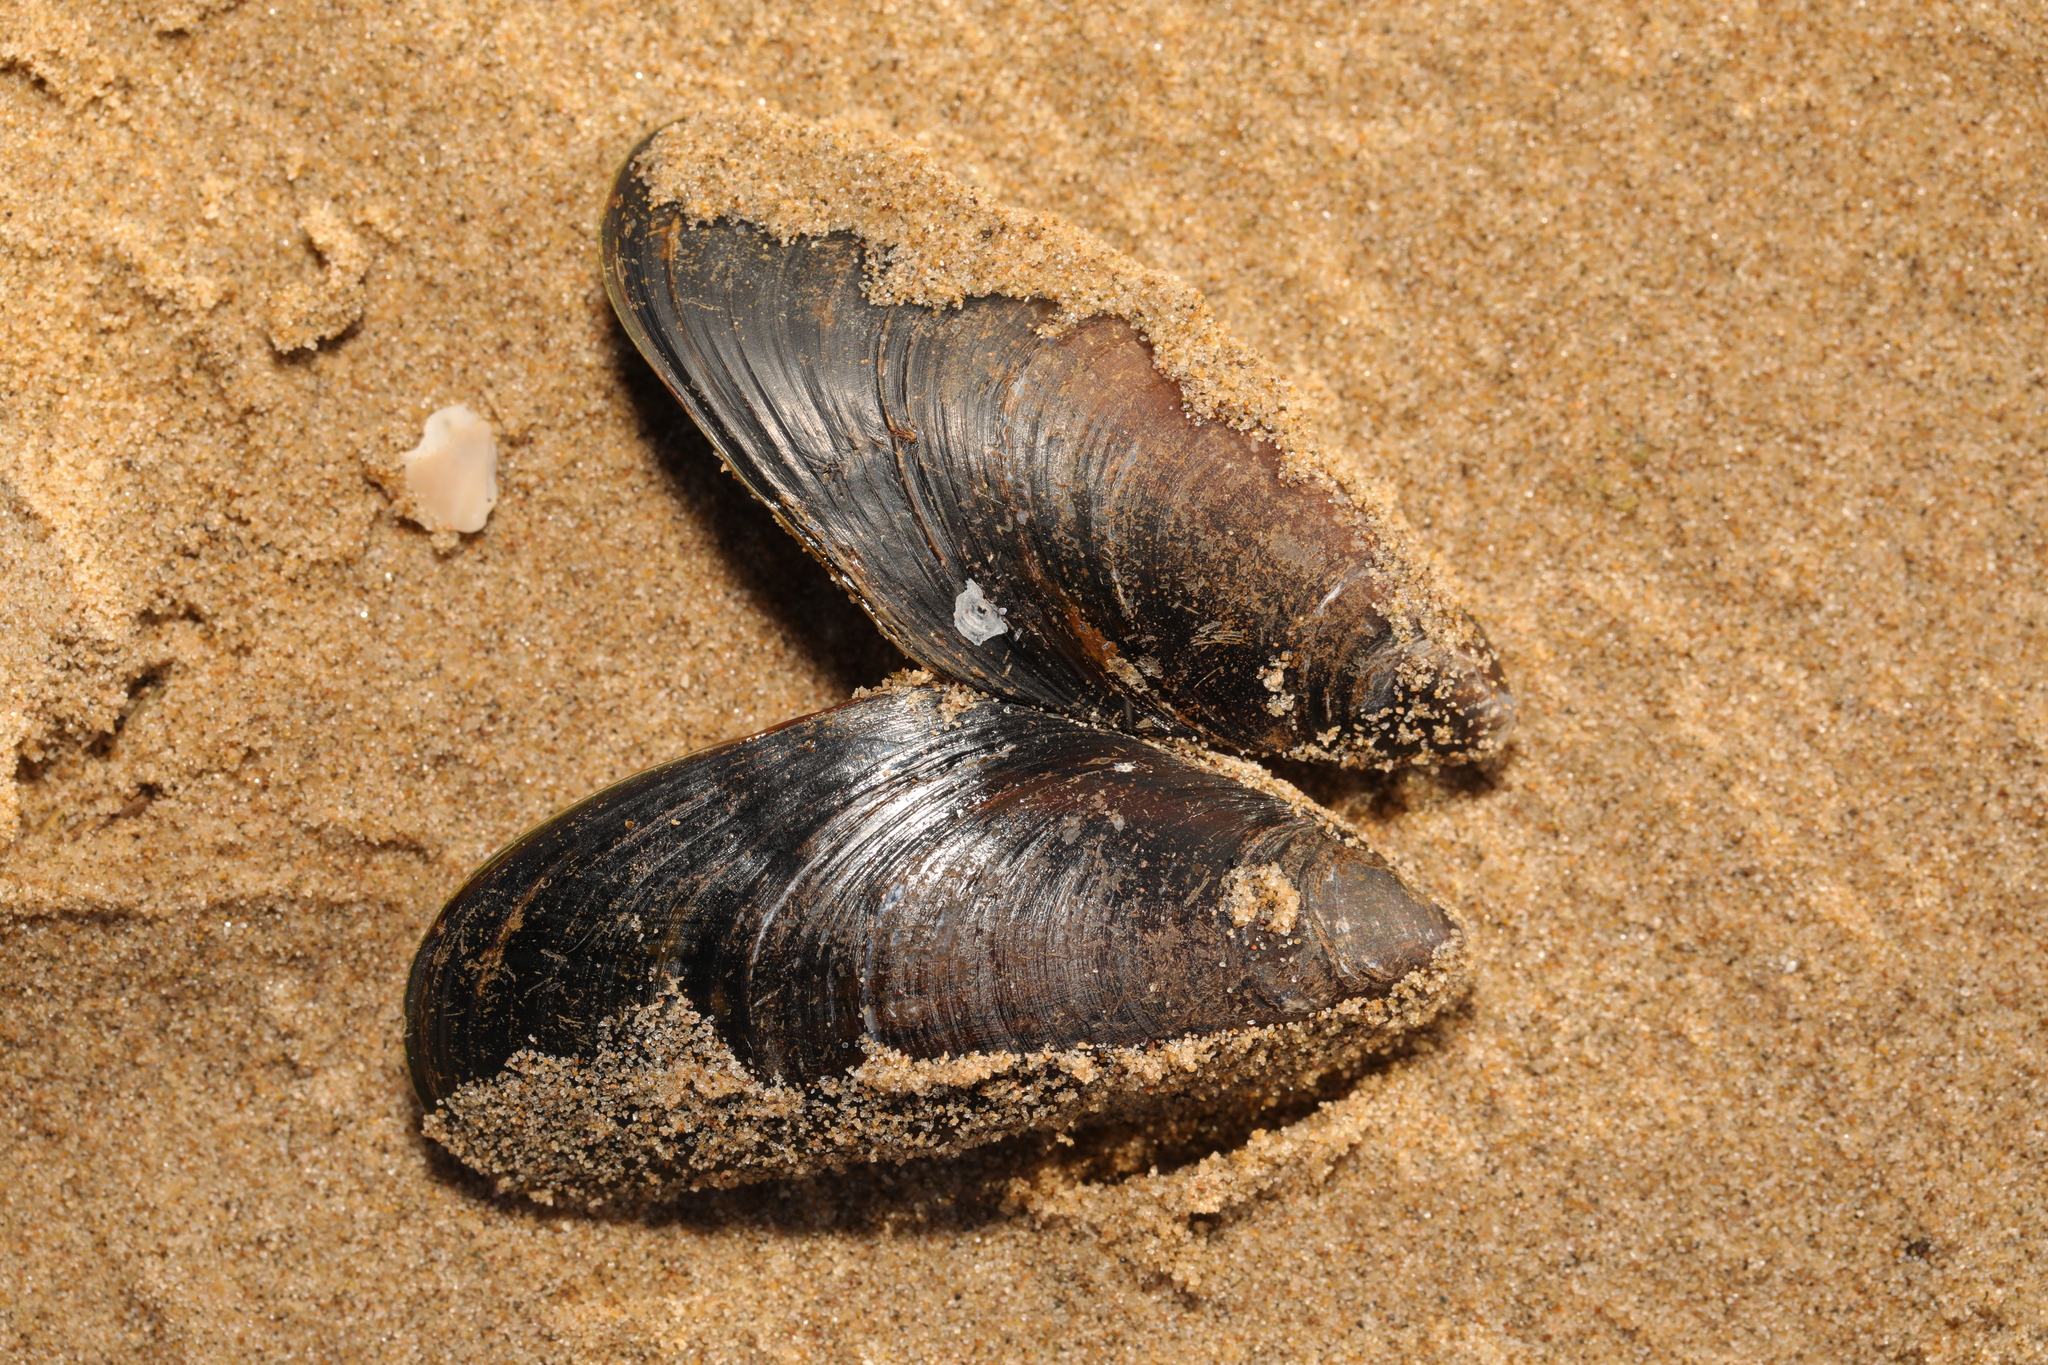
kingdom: Animalia
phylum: Mollusca
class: Bivalvia
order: Mytilida
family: Mytilidae
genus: Mytilus
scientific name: Mytilus edulis
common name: Blue mussel
